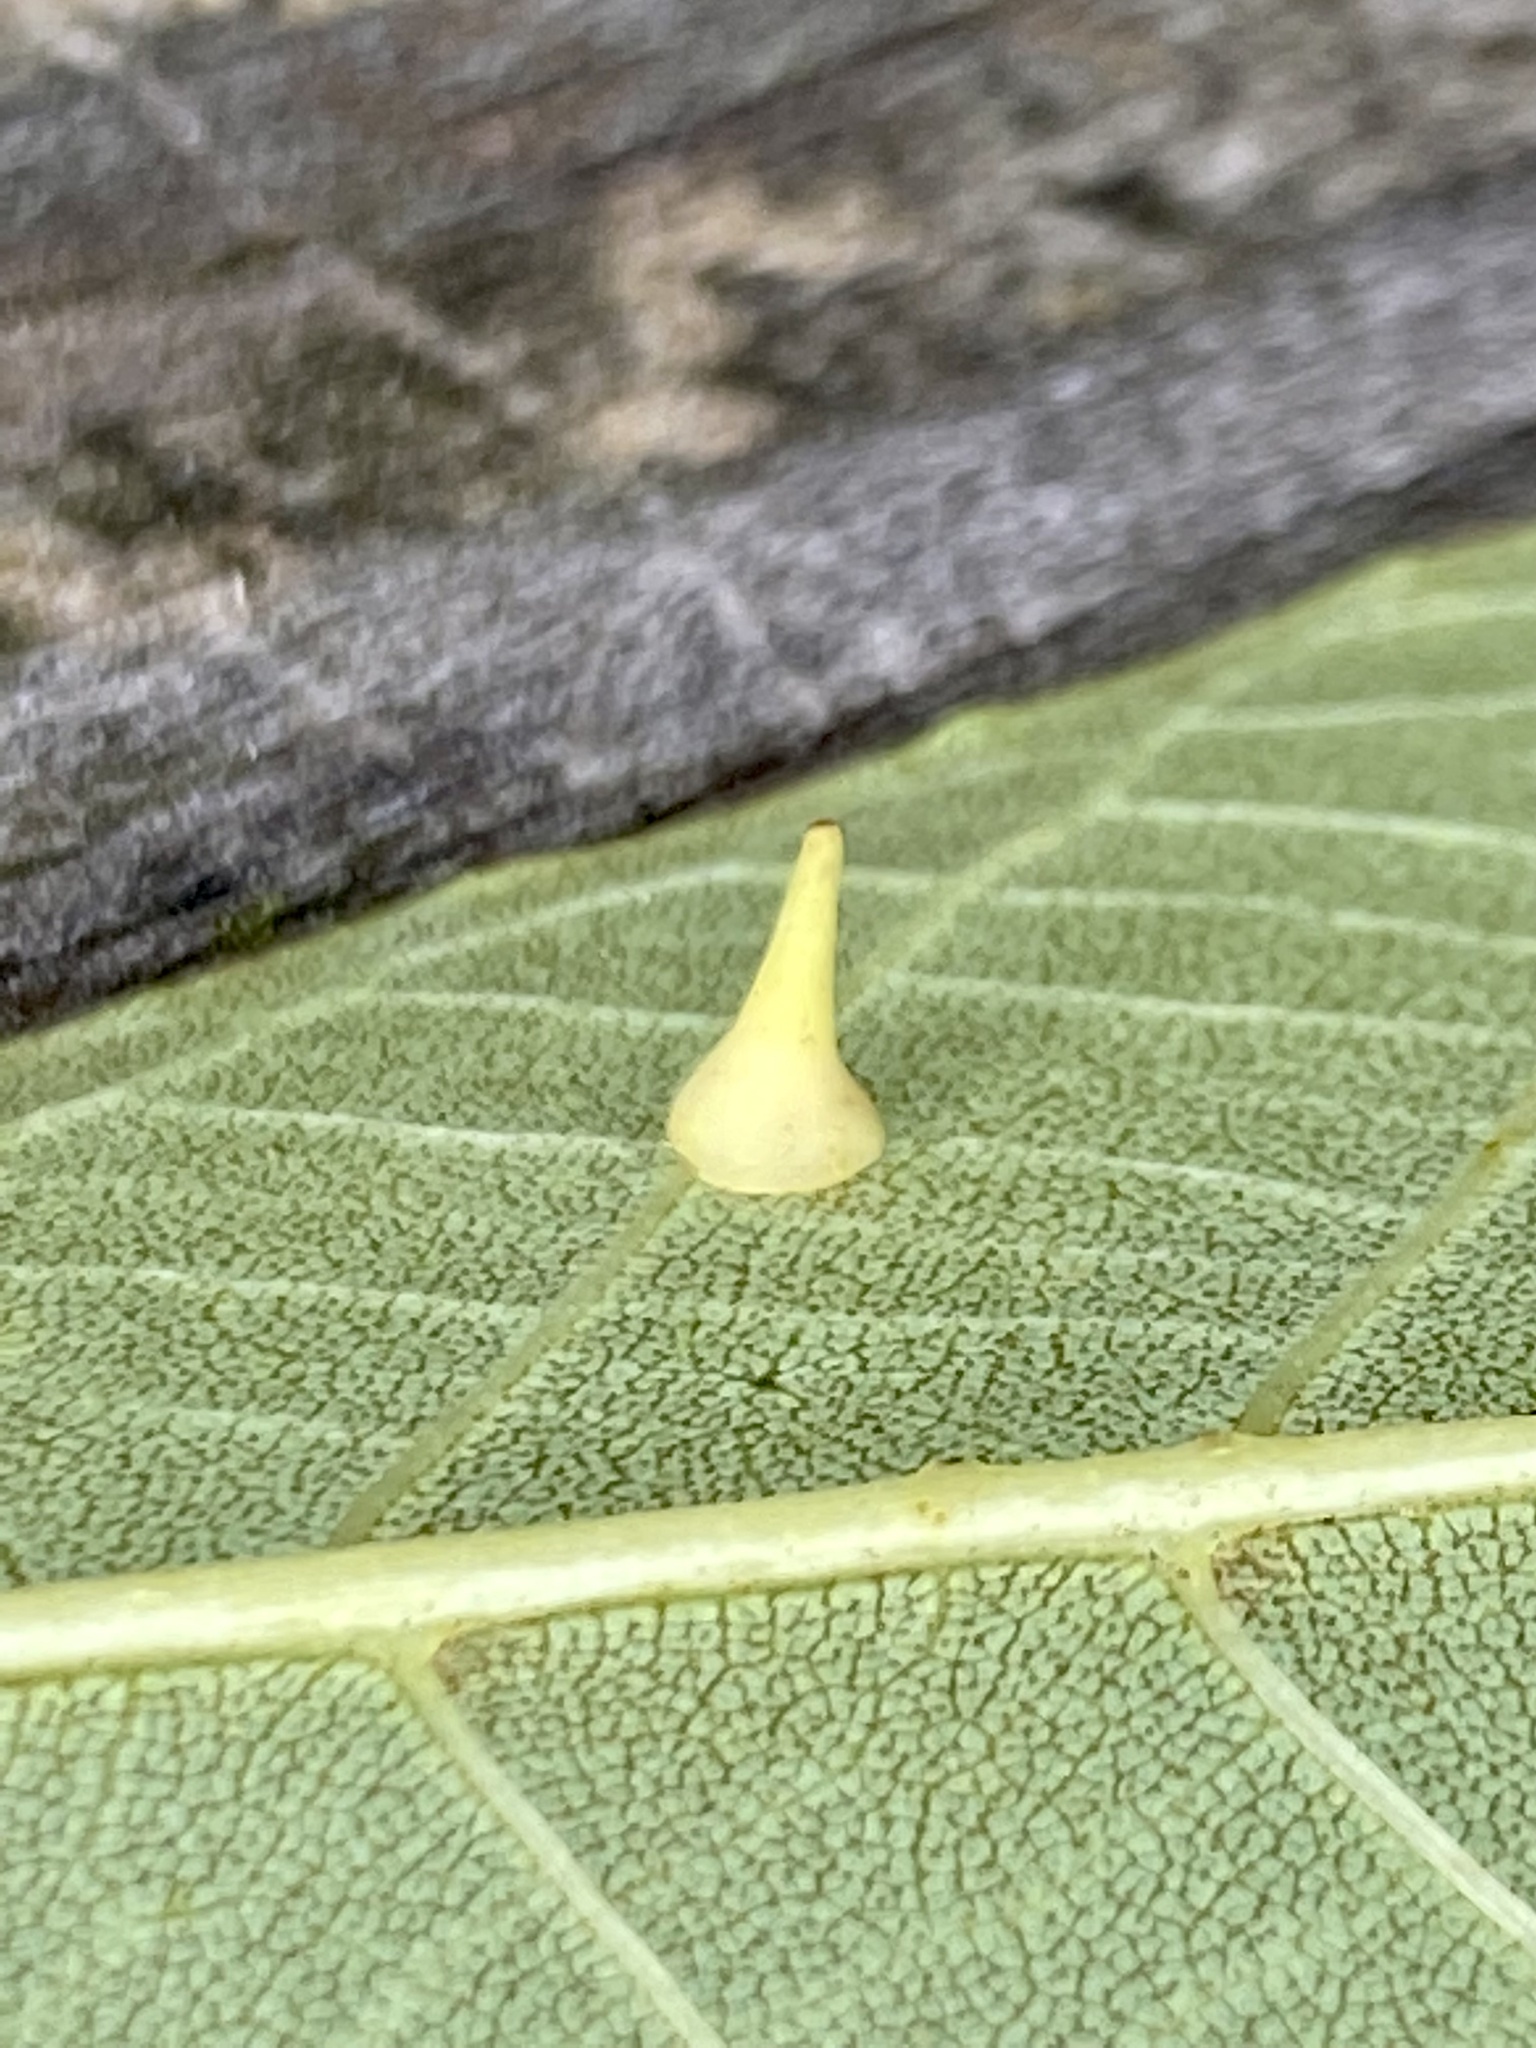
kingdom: Animalia
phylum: Arthropoda
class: Insecta
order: Diptera
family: Cecidomyiidae
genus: Caryomyia
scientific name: Caryomyia sanguinolenta
